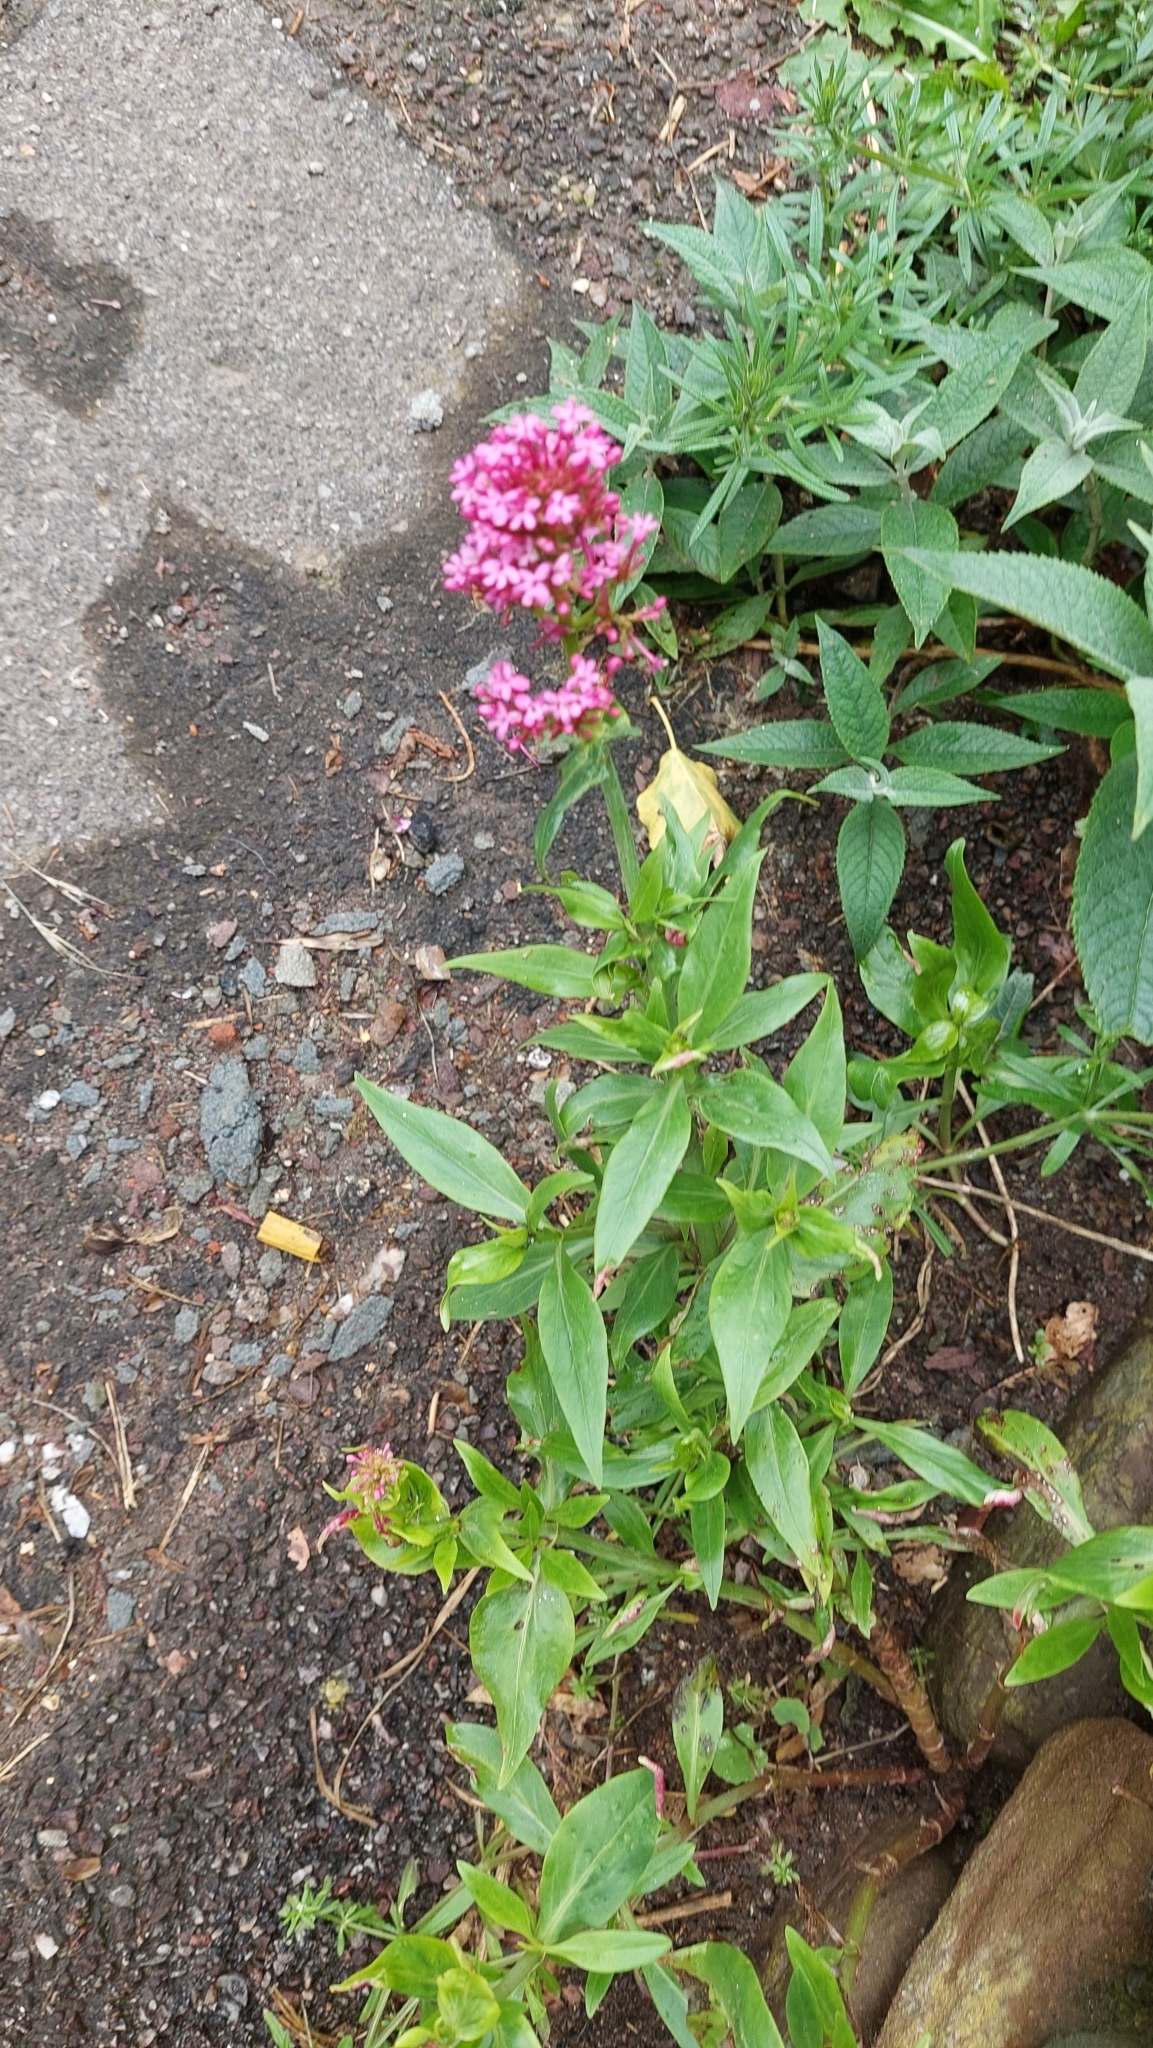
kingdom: Plantae
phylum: Tracheophyta
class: Magnoliopsida
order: Dipsacales
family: Caprifoliaceae
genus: Centranthus
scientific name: Centranthus ruber
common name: Red valerian
